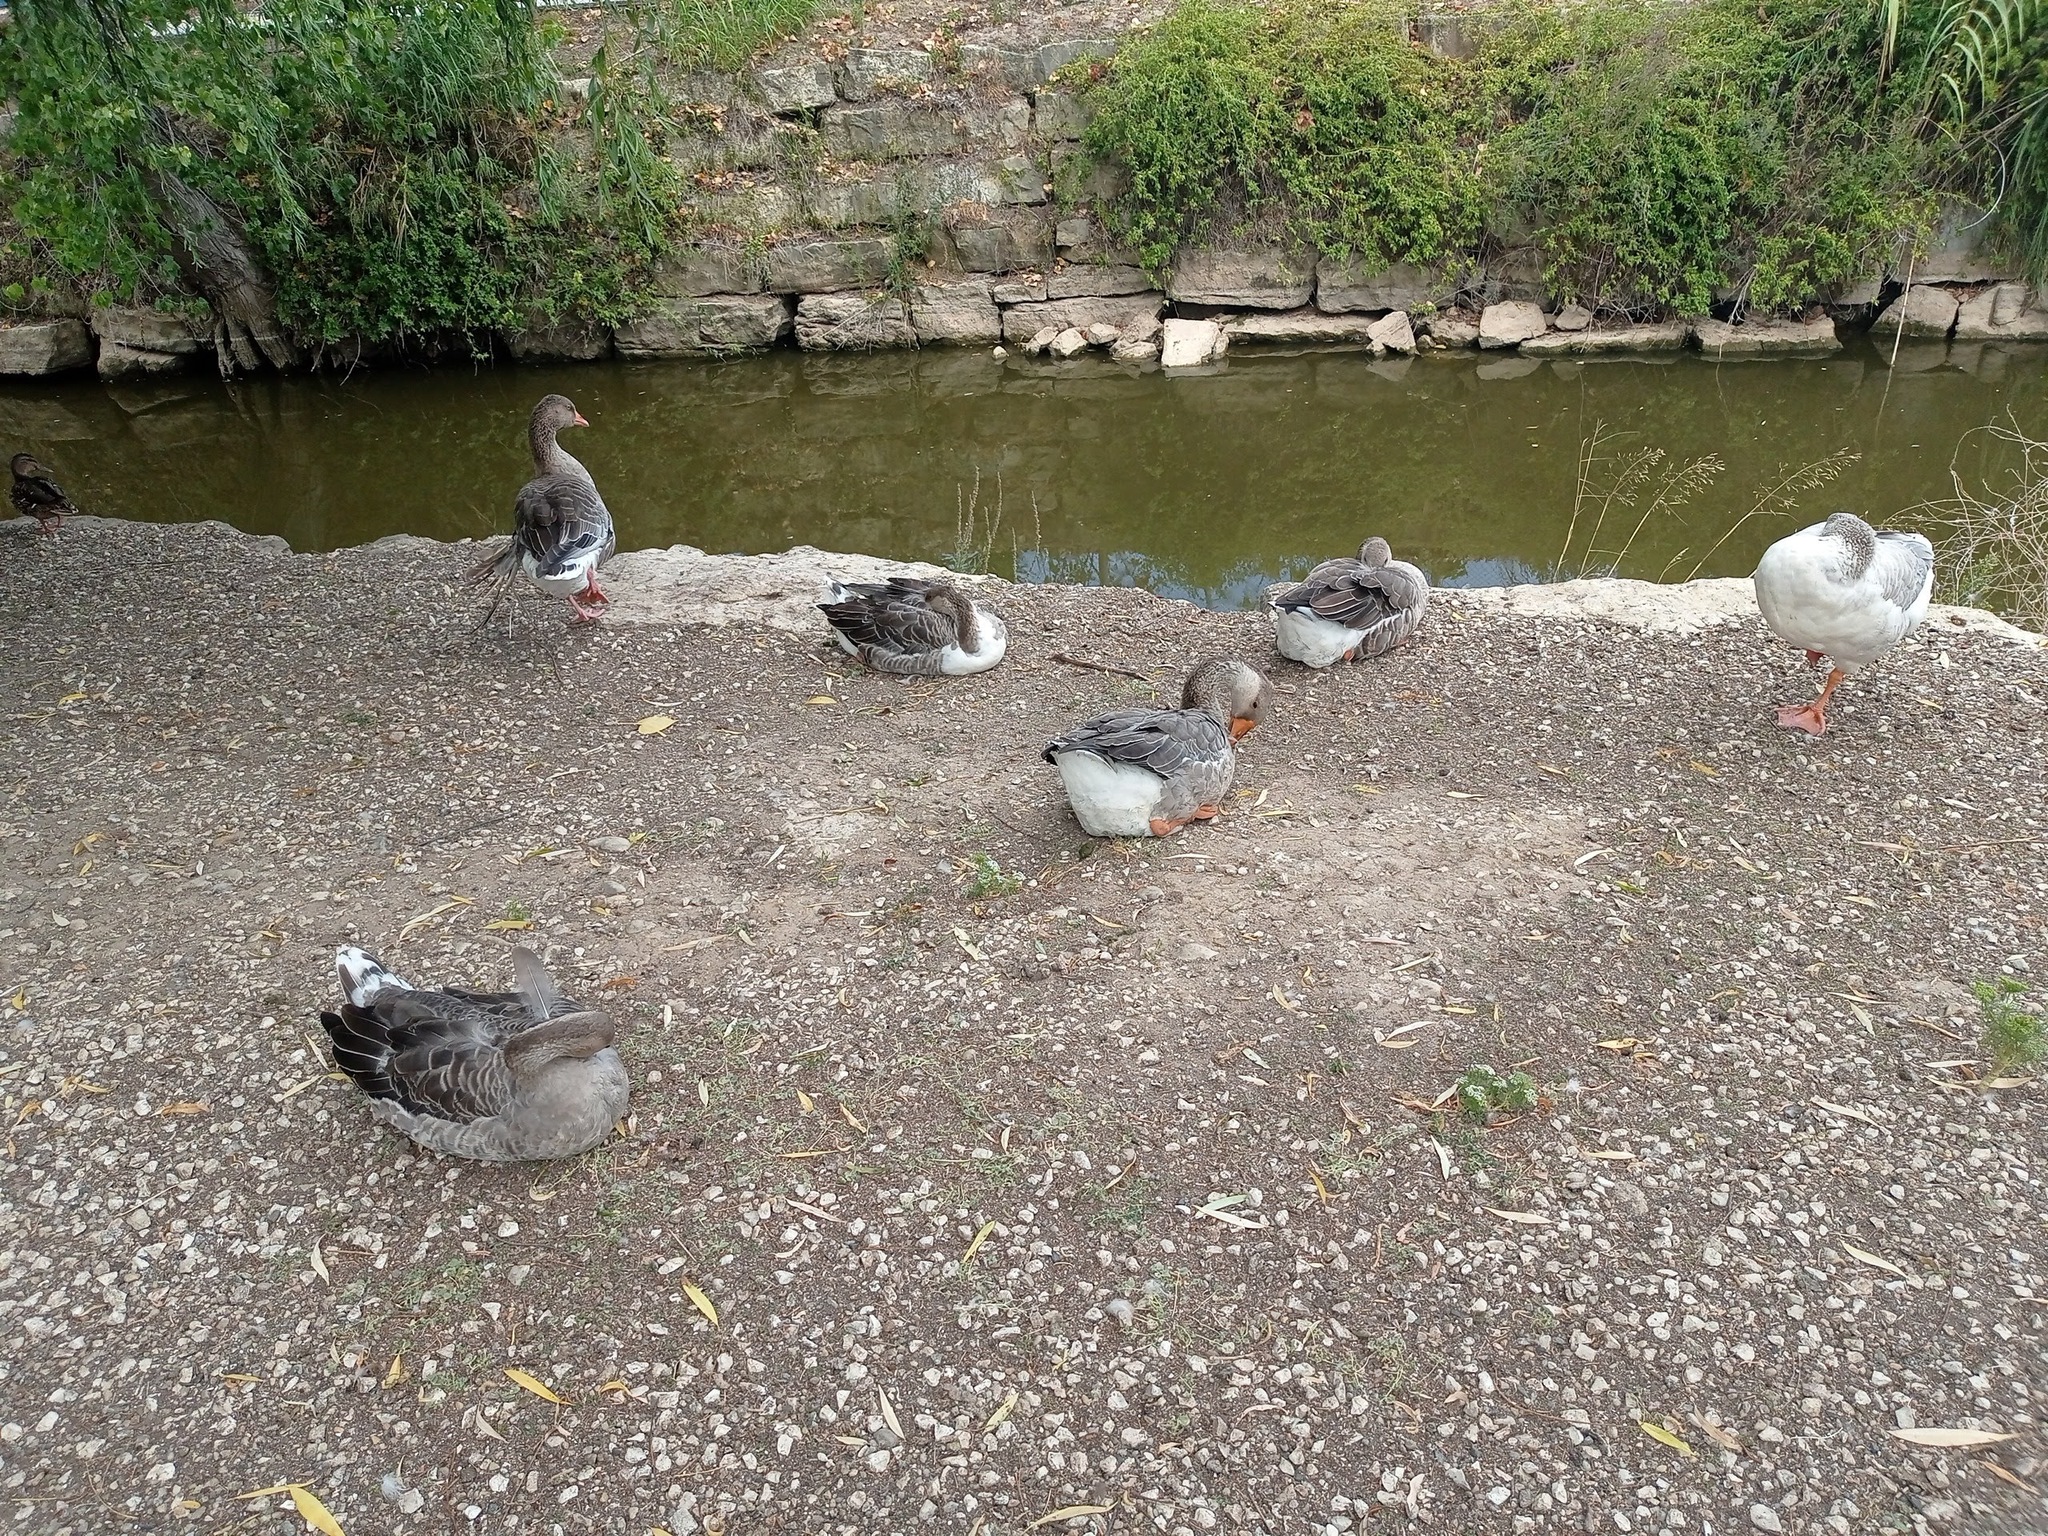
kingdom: Animalia
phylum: Chordata
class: Aves
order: Anseriformes
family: Anatidae
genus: Anser
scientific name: Anser
